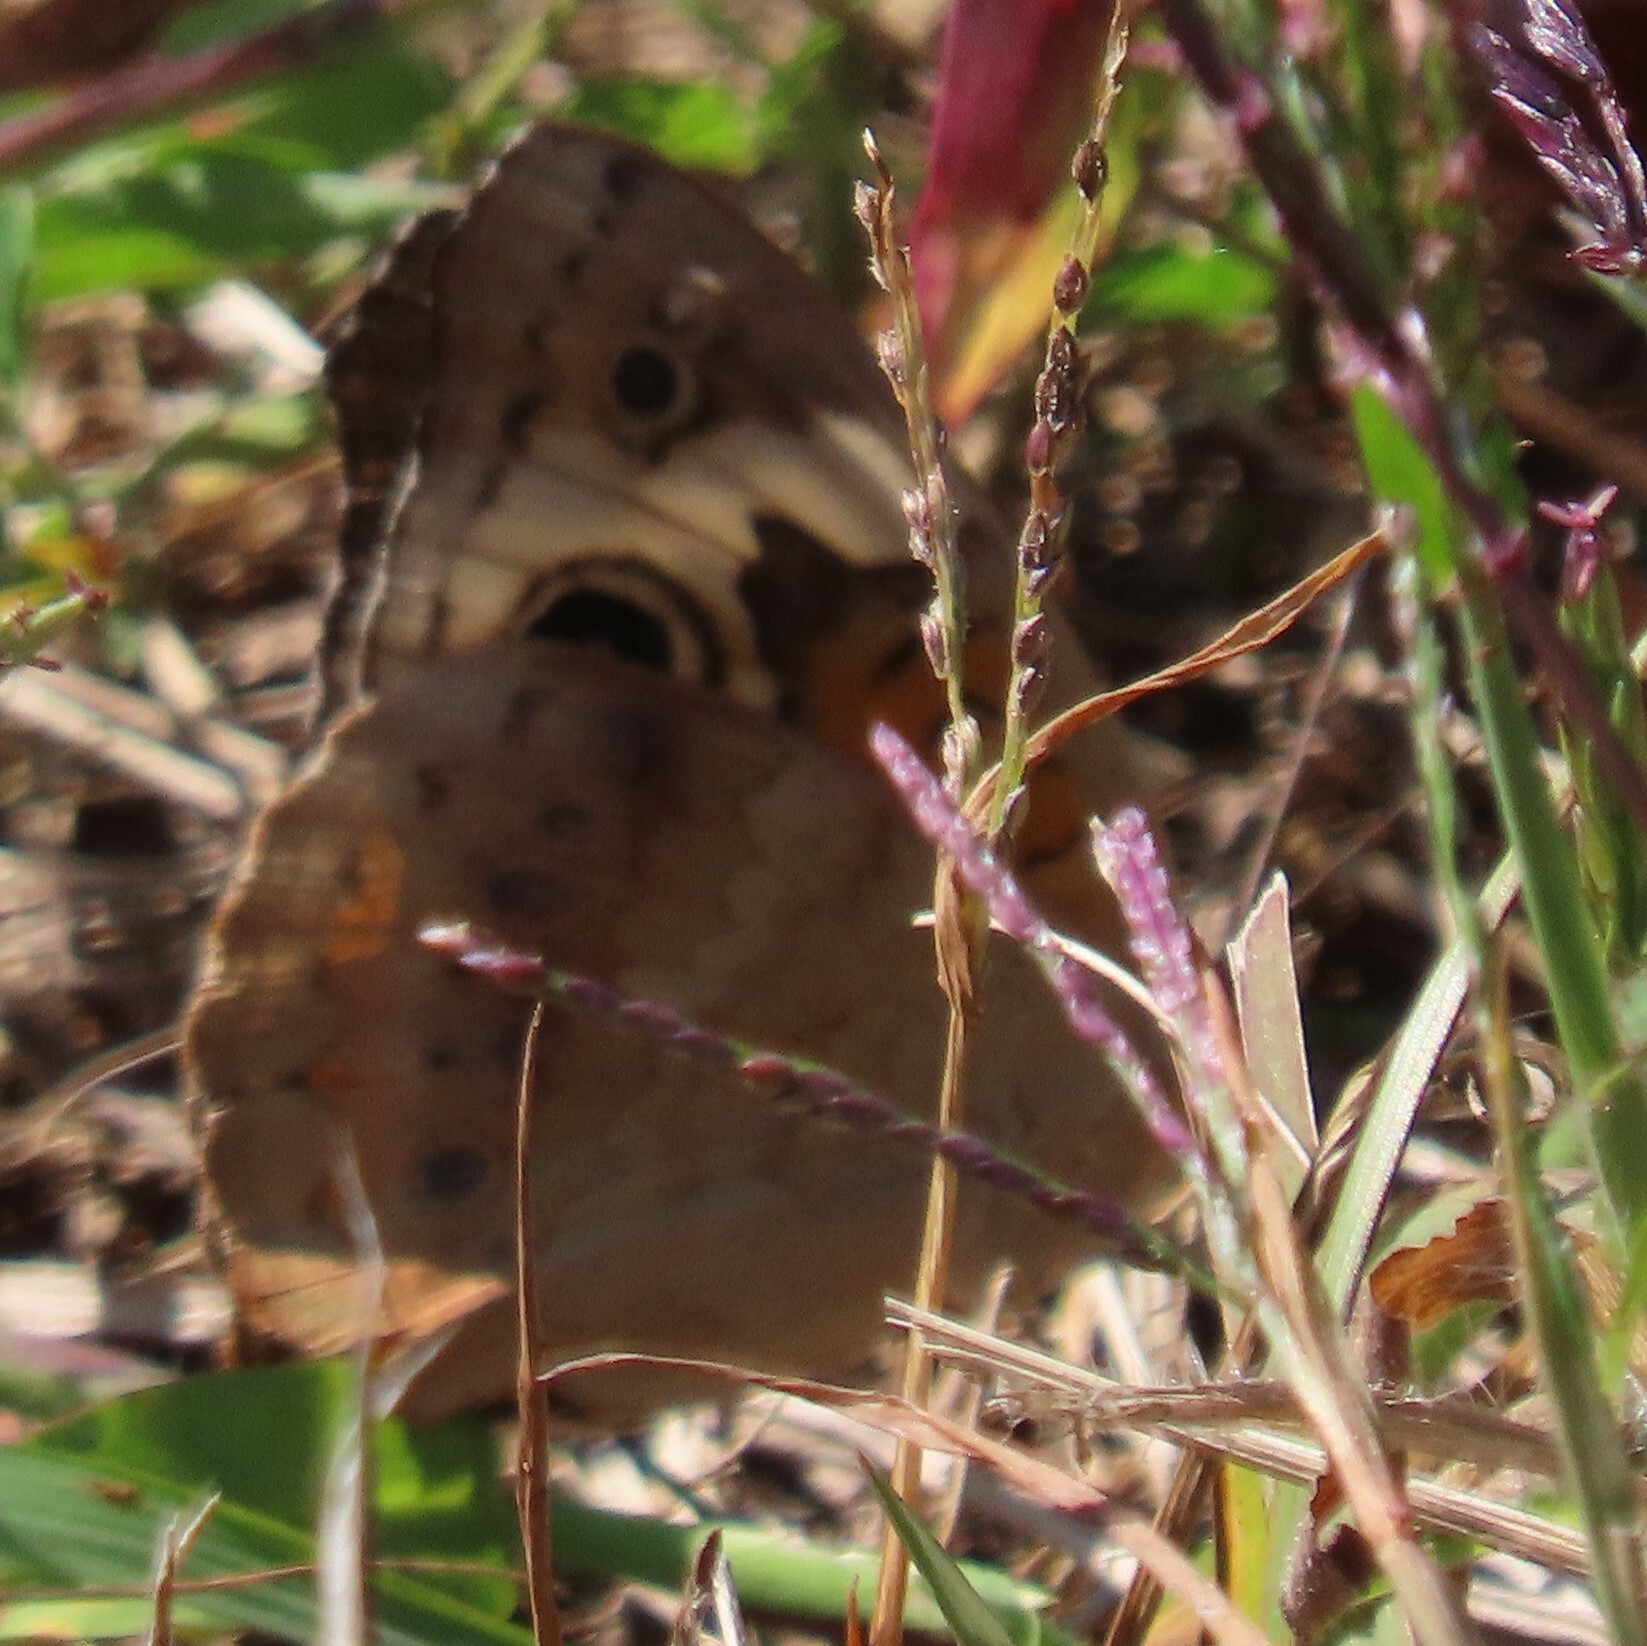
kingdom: Animalia
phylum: Arthropoda
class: Insecta
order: Lepidoptera
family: Nymphalidae
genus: Junonia
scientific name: Junonia coenia
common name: Common buckeye
